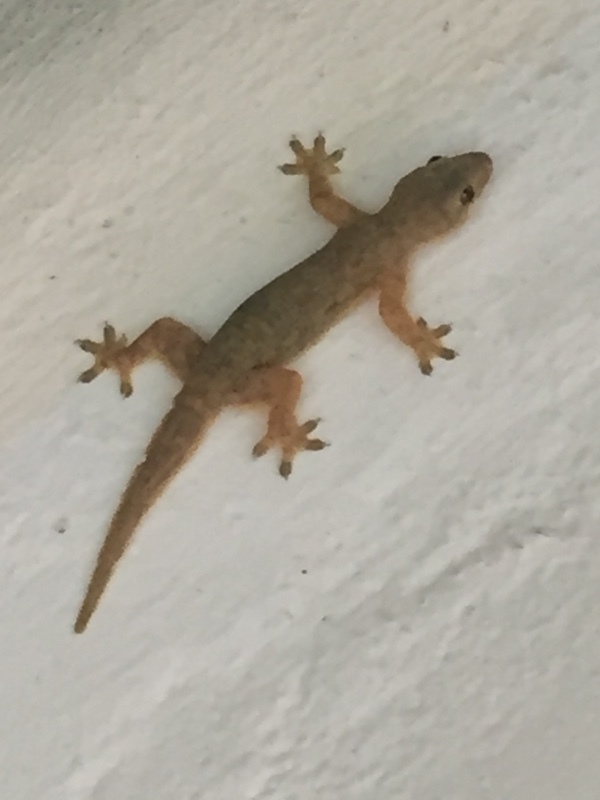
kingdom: Animalia
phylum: Chordata
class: Squamata
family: Gekkonidae
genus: Hemidactylus
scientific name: Hemidactylus platyurus
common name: Flat-tailed house gecko
